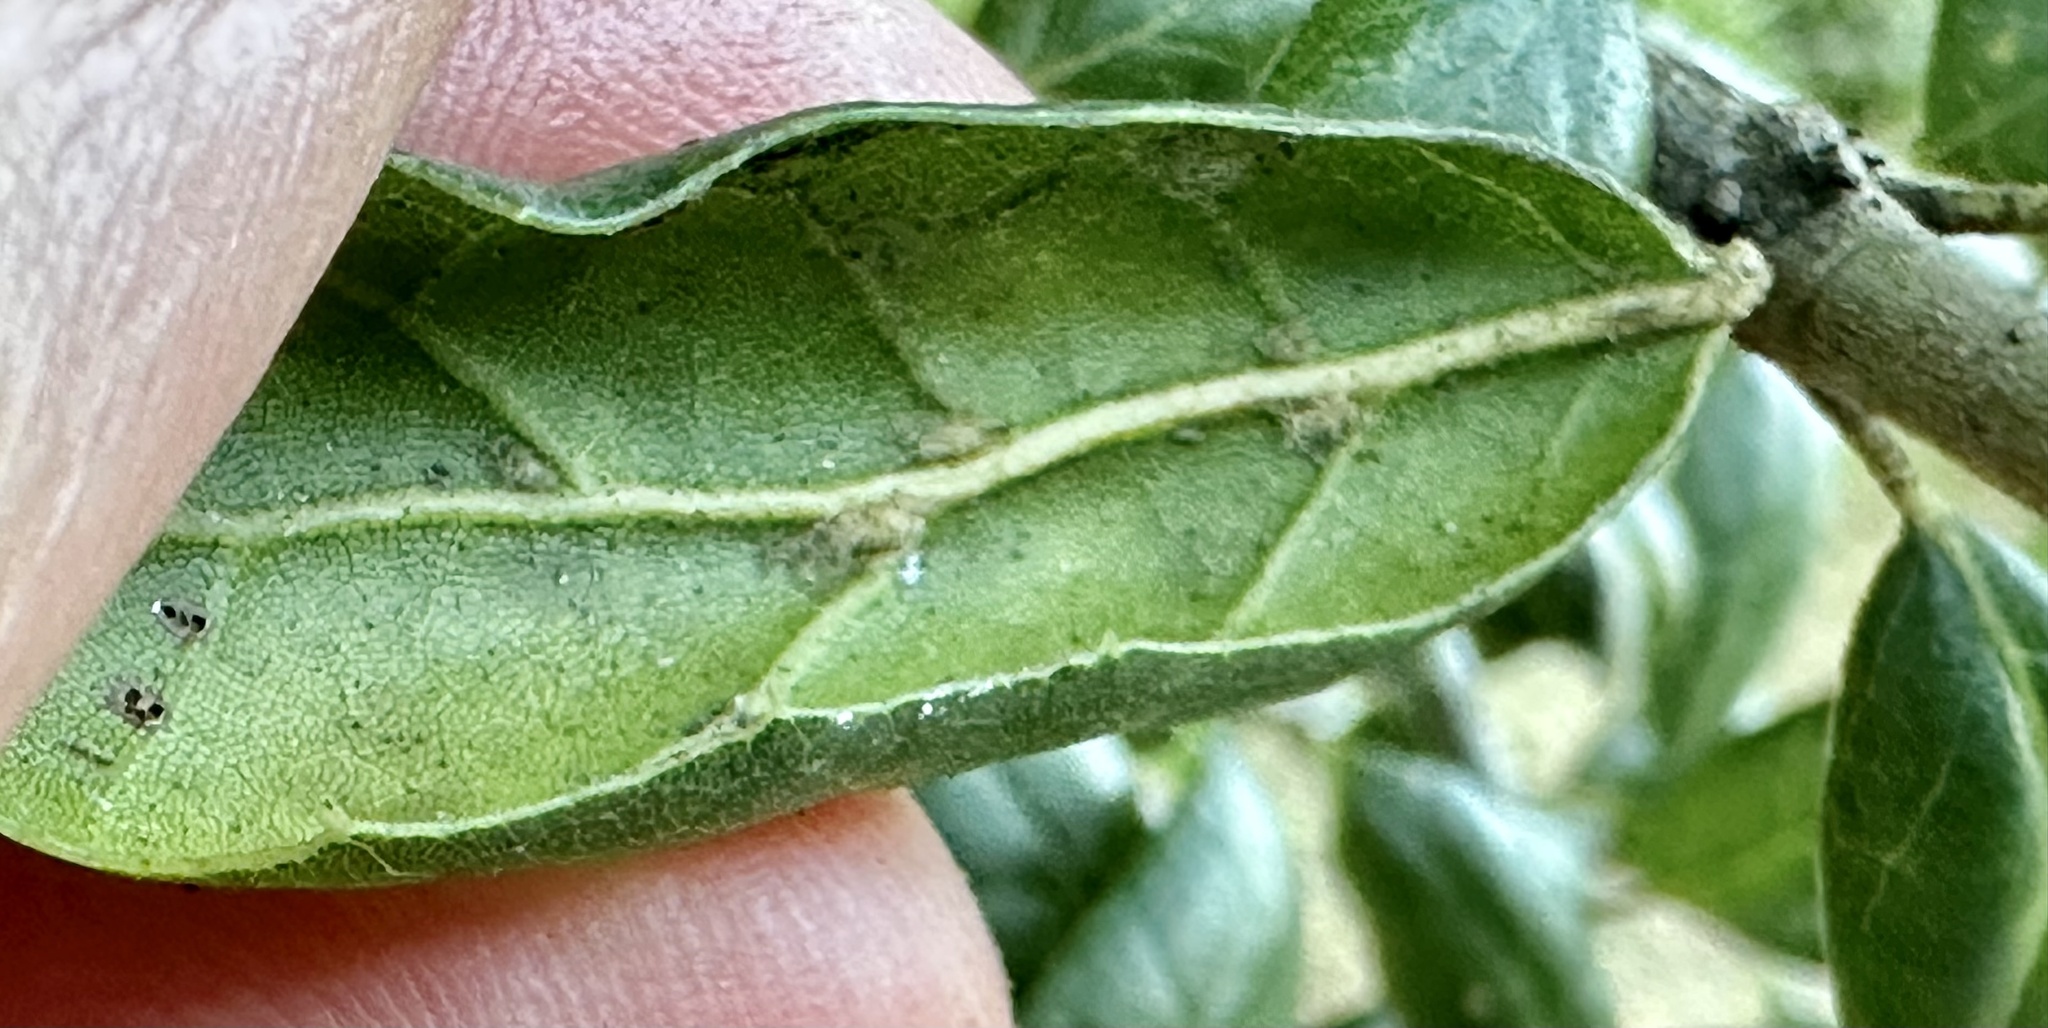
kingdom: Plantae
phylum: Tracheophyta
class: Magnoliopsida
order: Fagales
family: Fagaceae
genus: Quercus
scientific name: Quercus agrifolia
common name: California live oak
